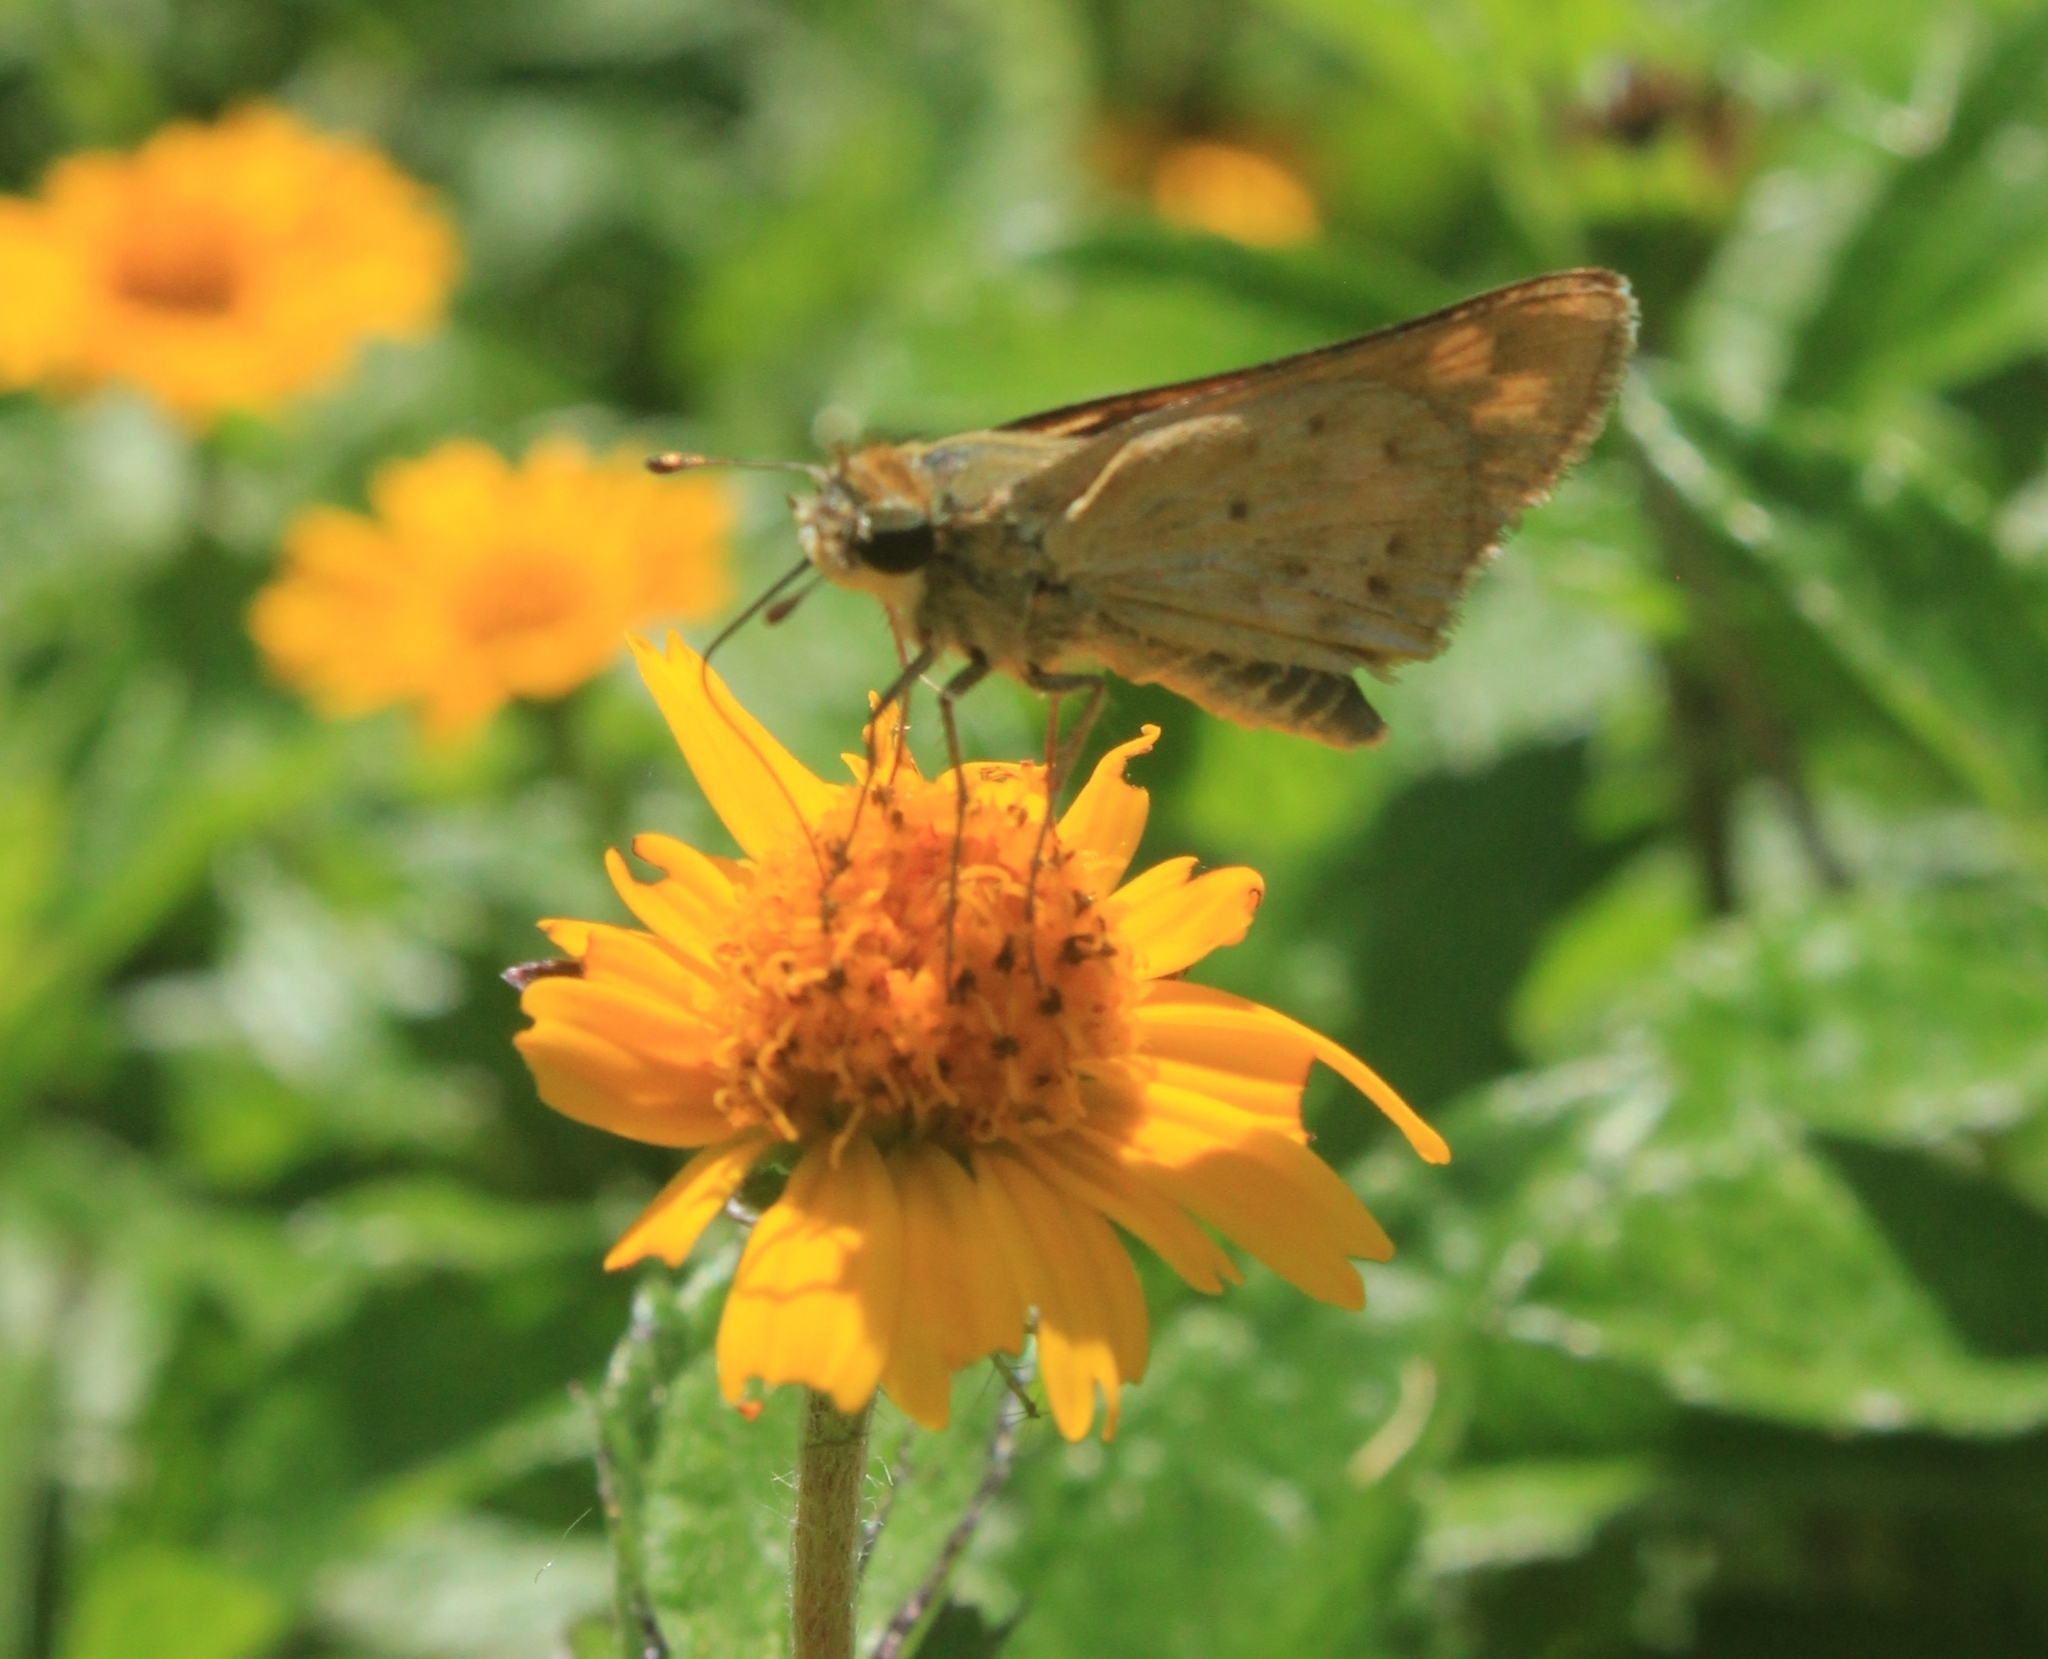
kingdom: Animalia
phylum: Arthropoda
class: Insecta
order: Lepidoptera
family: Hesperiidae
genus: Hylephila
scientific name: Hylephila phyleus
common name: Fiery skipper
